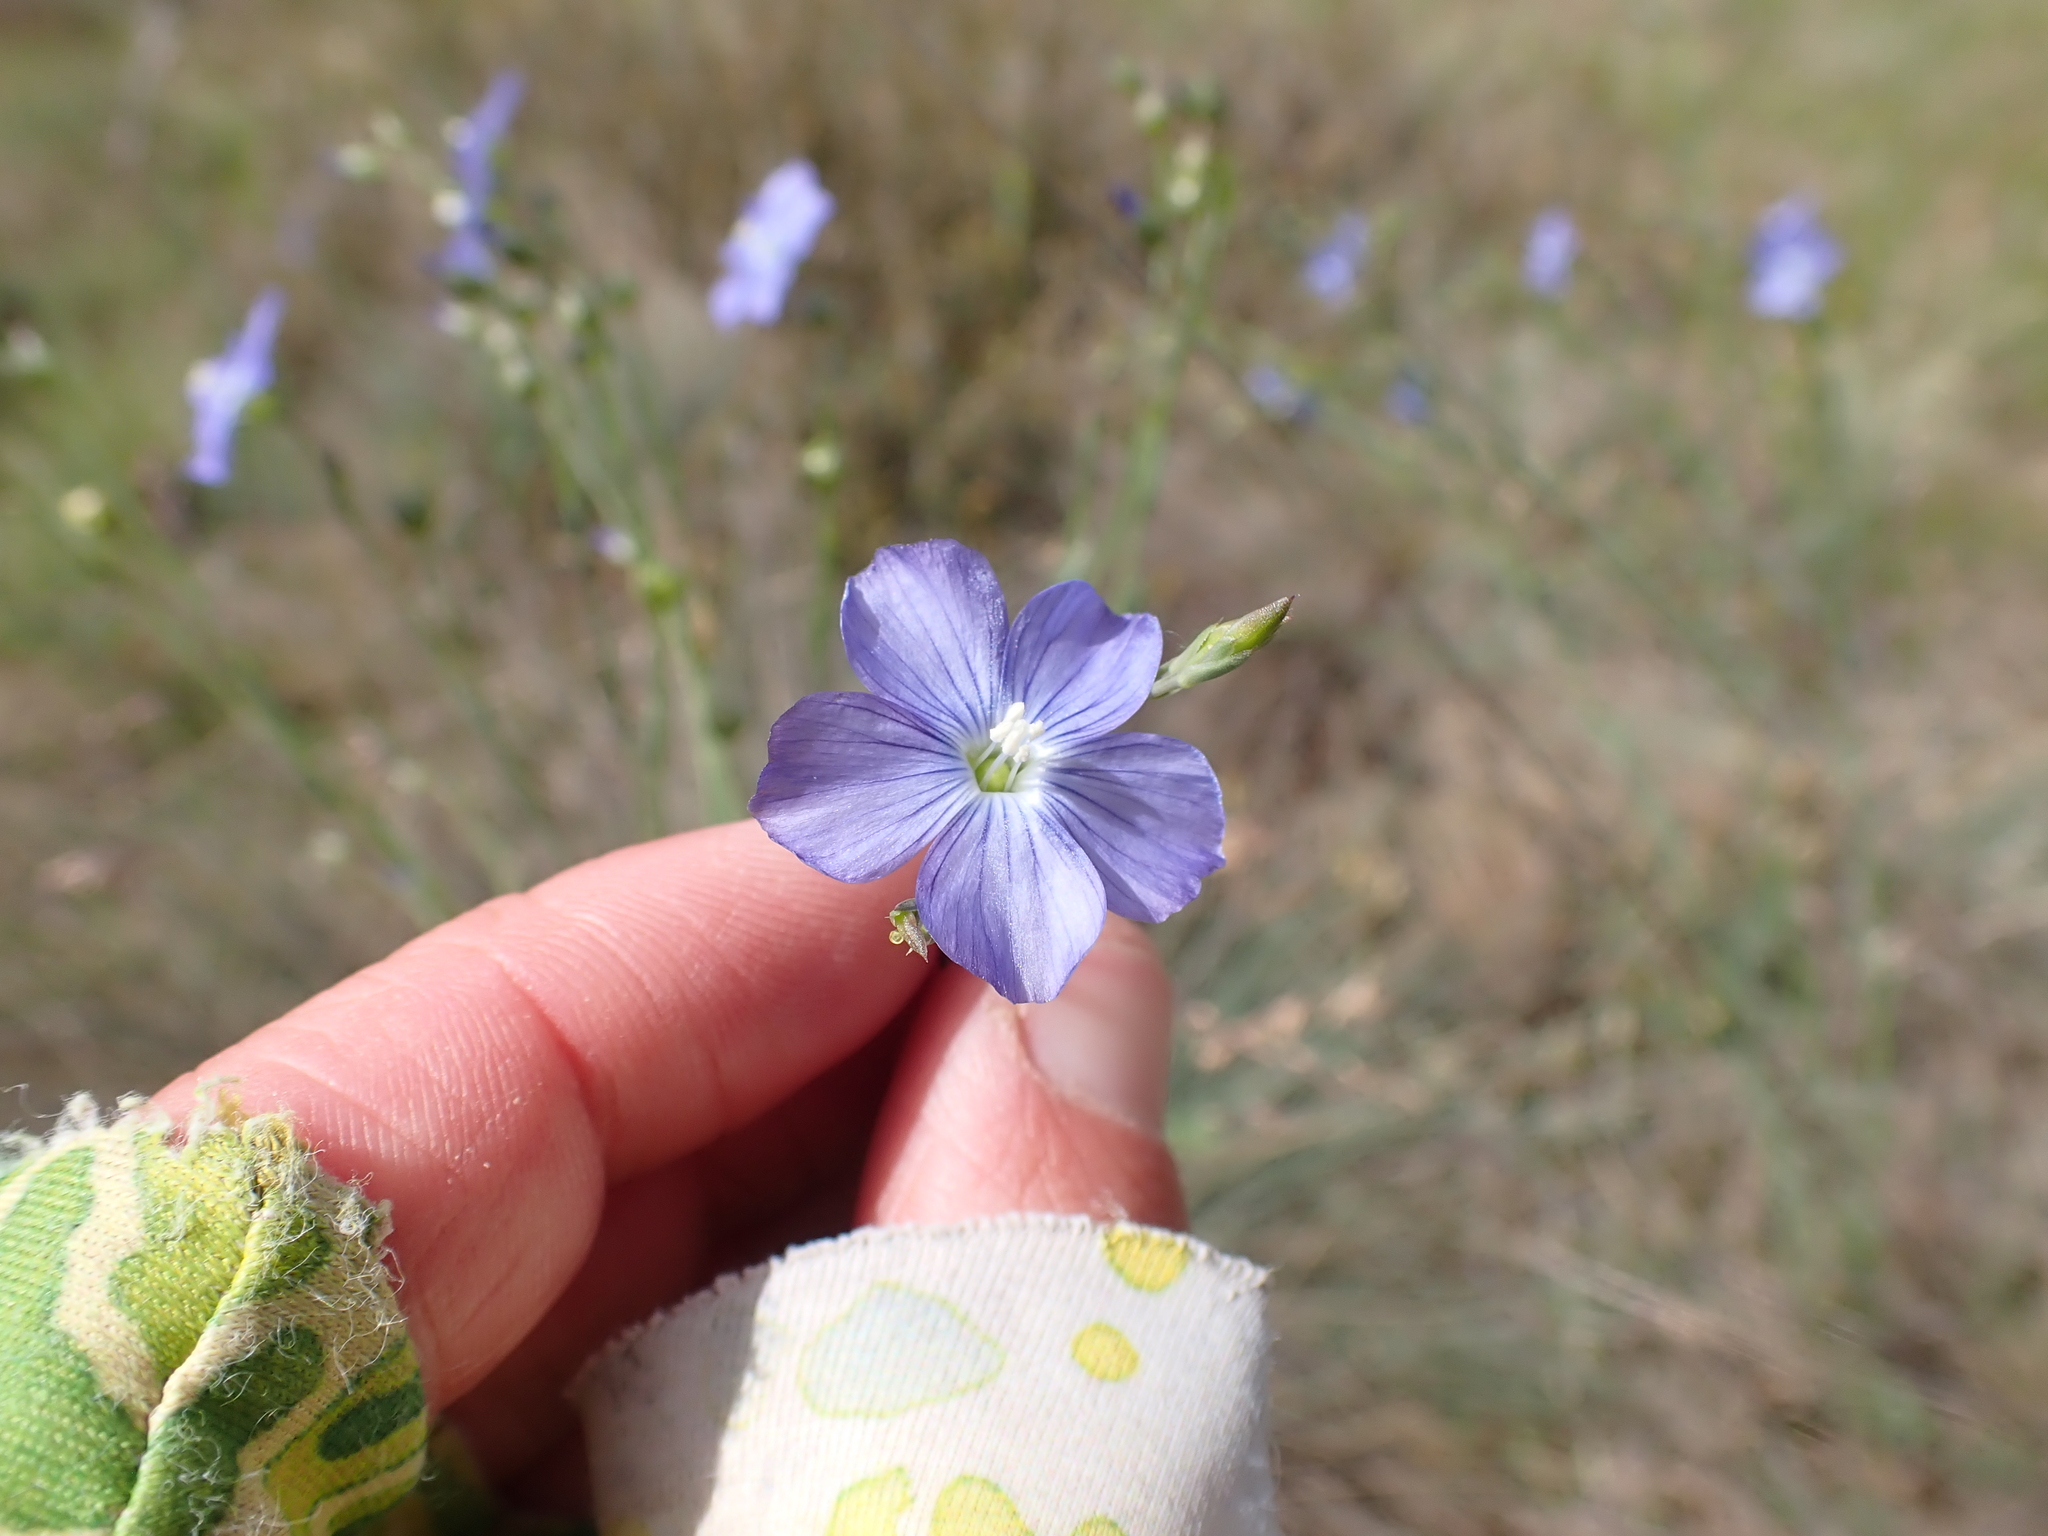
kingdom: Plantae
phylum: Tracheophyta
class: Magnoliopsida
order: Malpighiales
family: Linaceae
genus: Linum
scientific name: Linum marginale
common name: Wild flax
